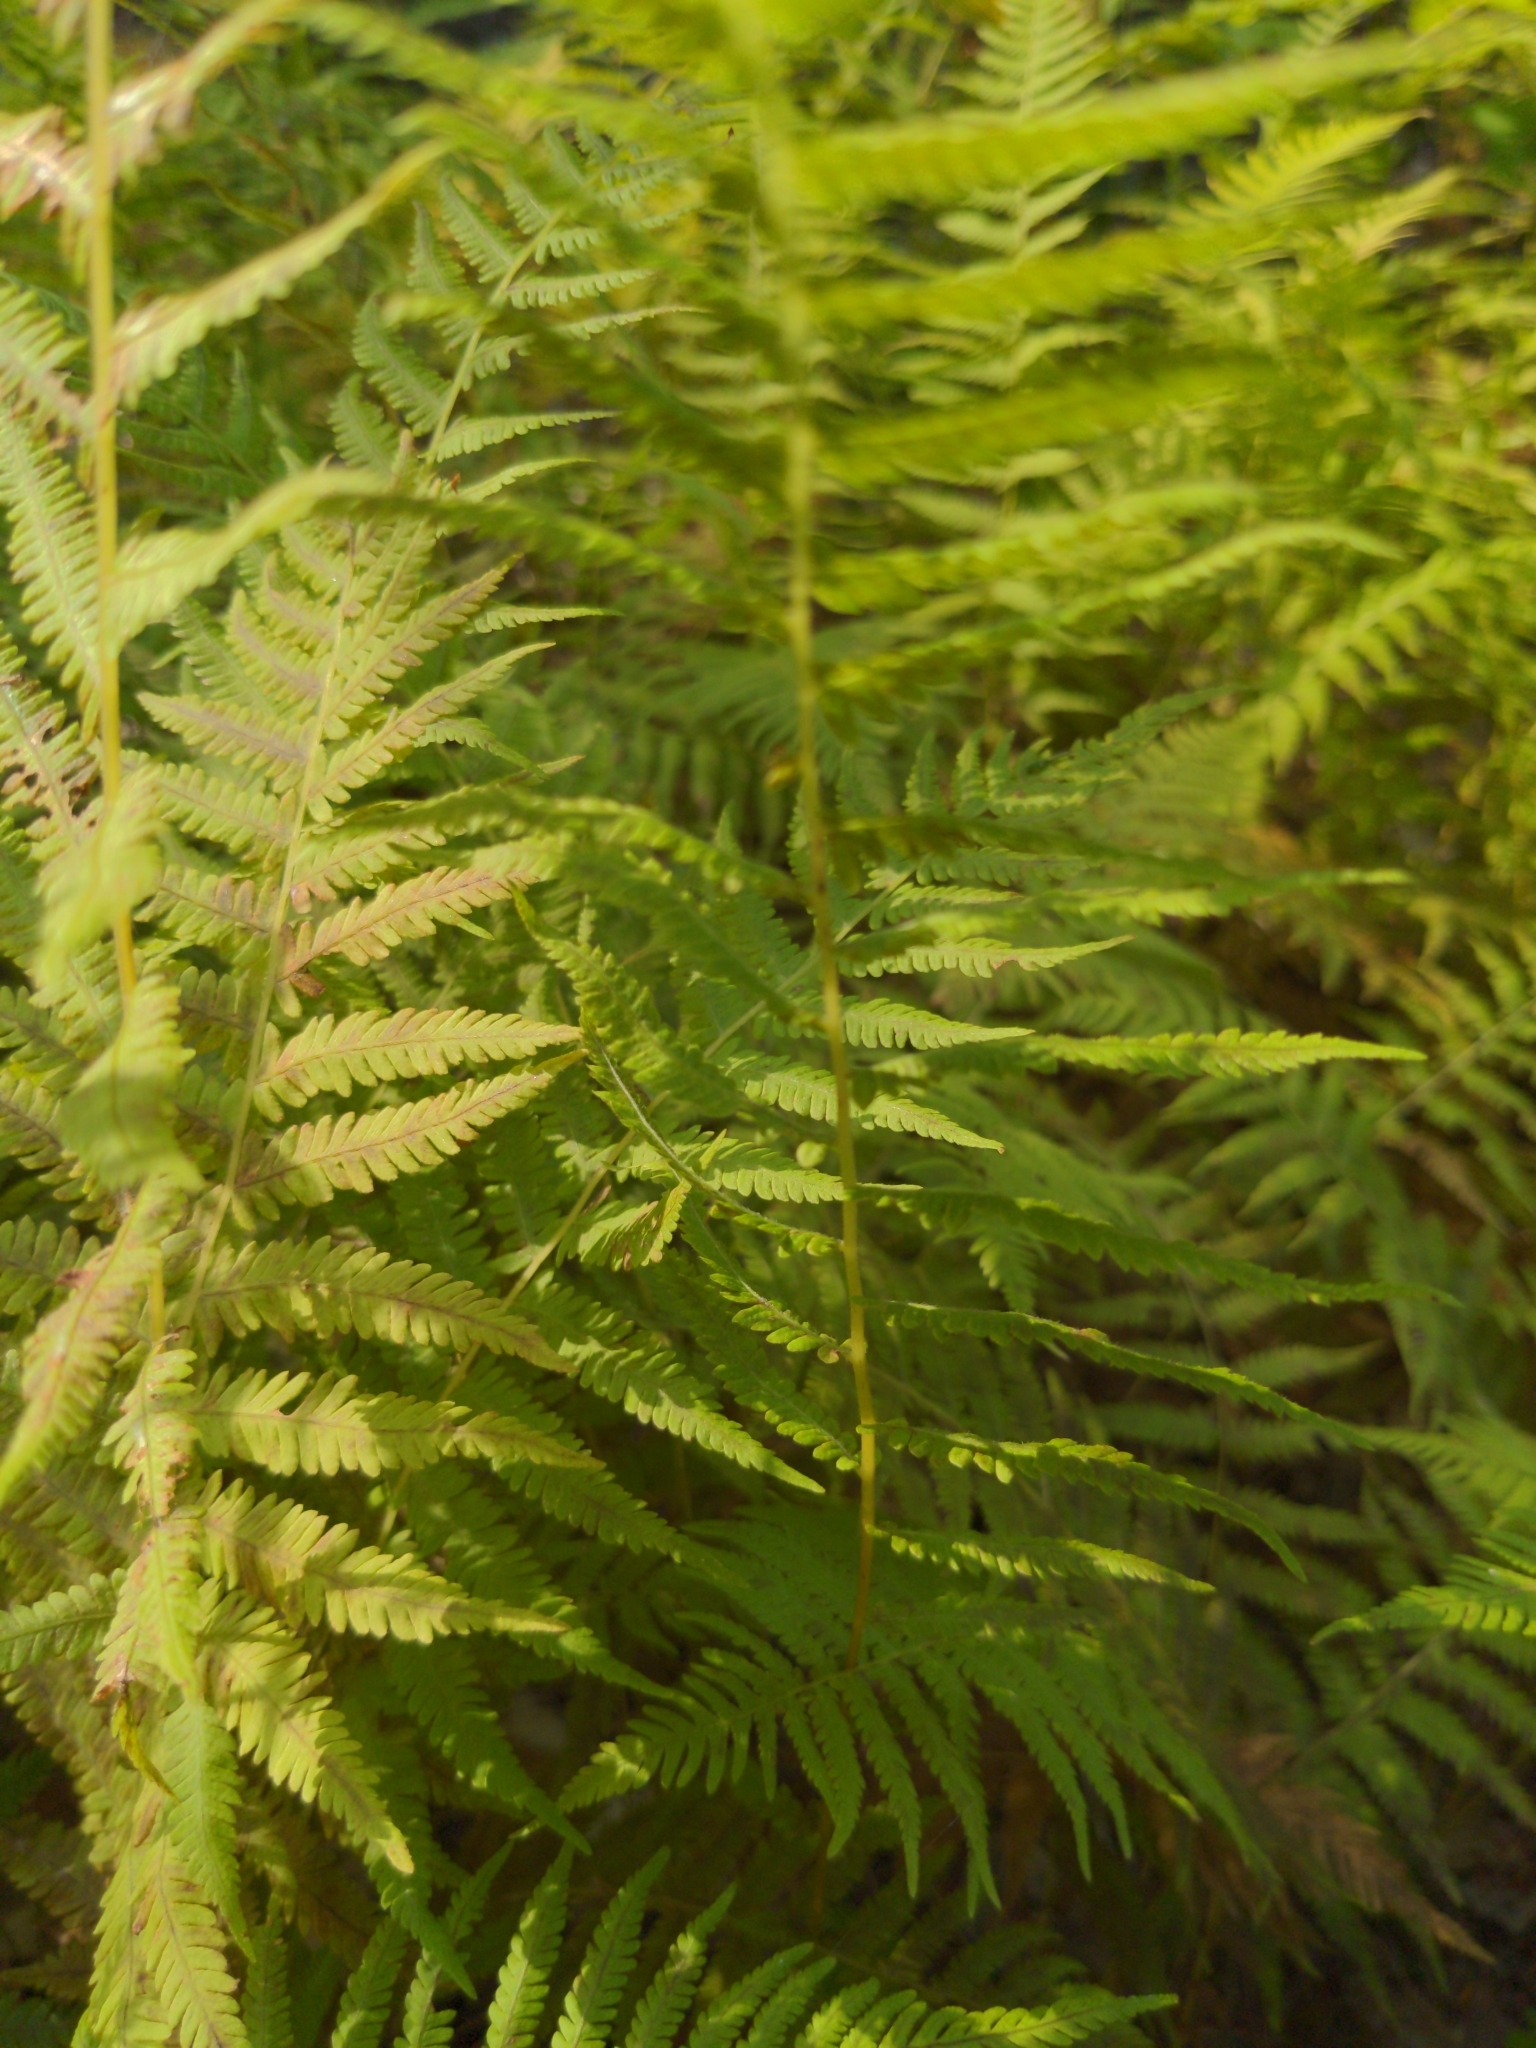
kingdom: Plantae
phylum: Tracheophyta
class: Polypodiopsida
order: Polypodiales
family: Thelypteridaceae
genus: Amauropelta
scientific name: Amauropelta noveboracensis
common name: New york fern
